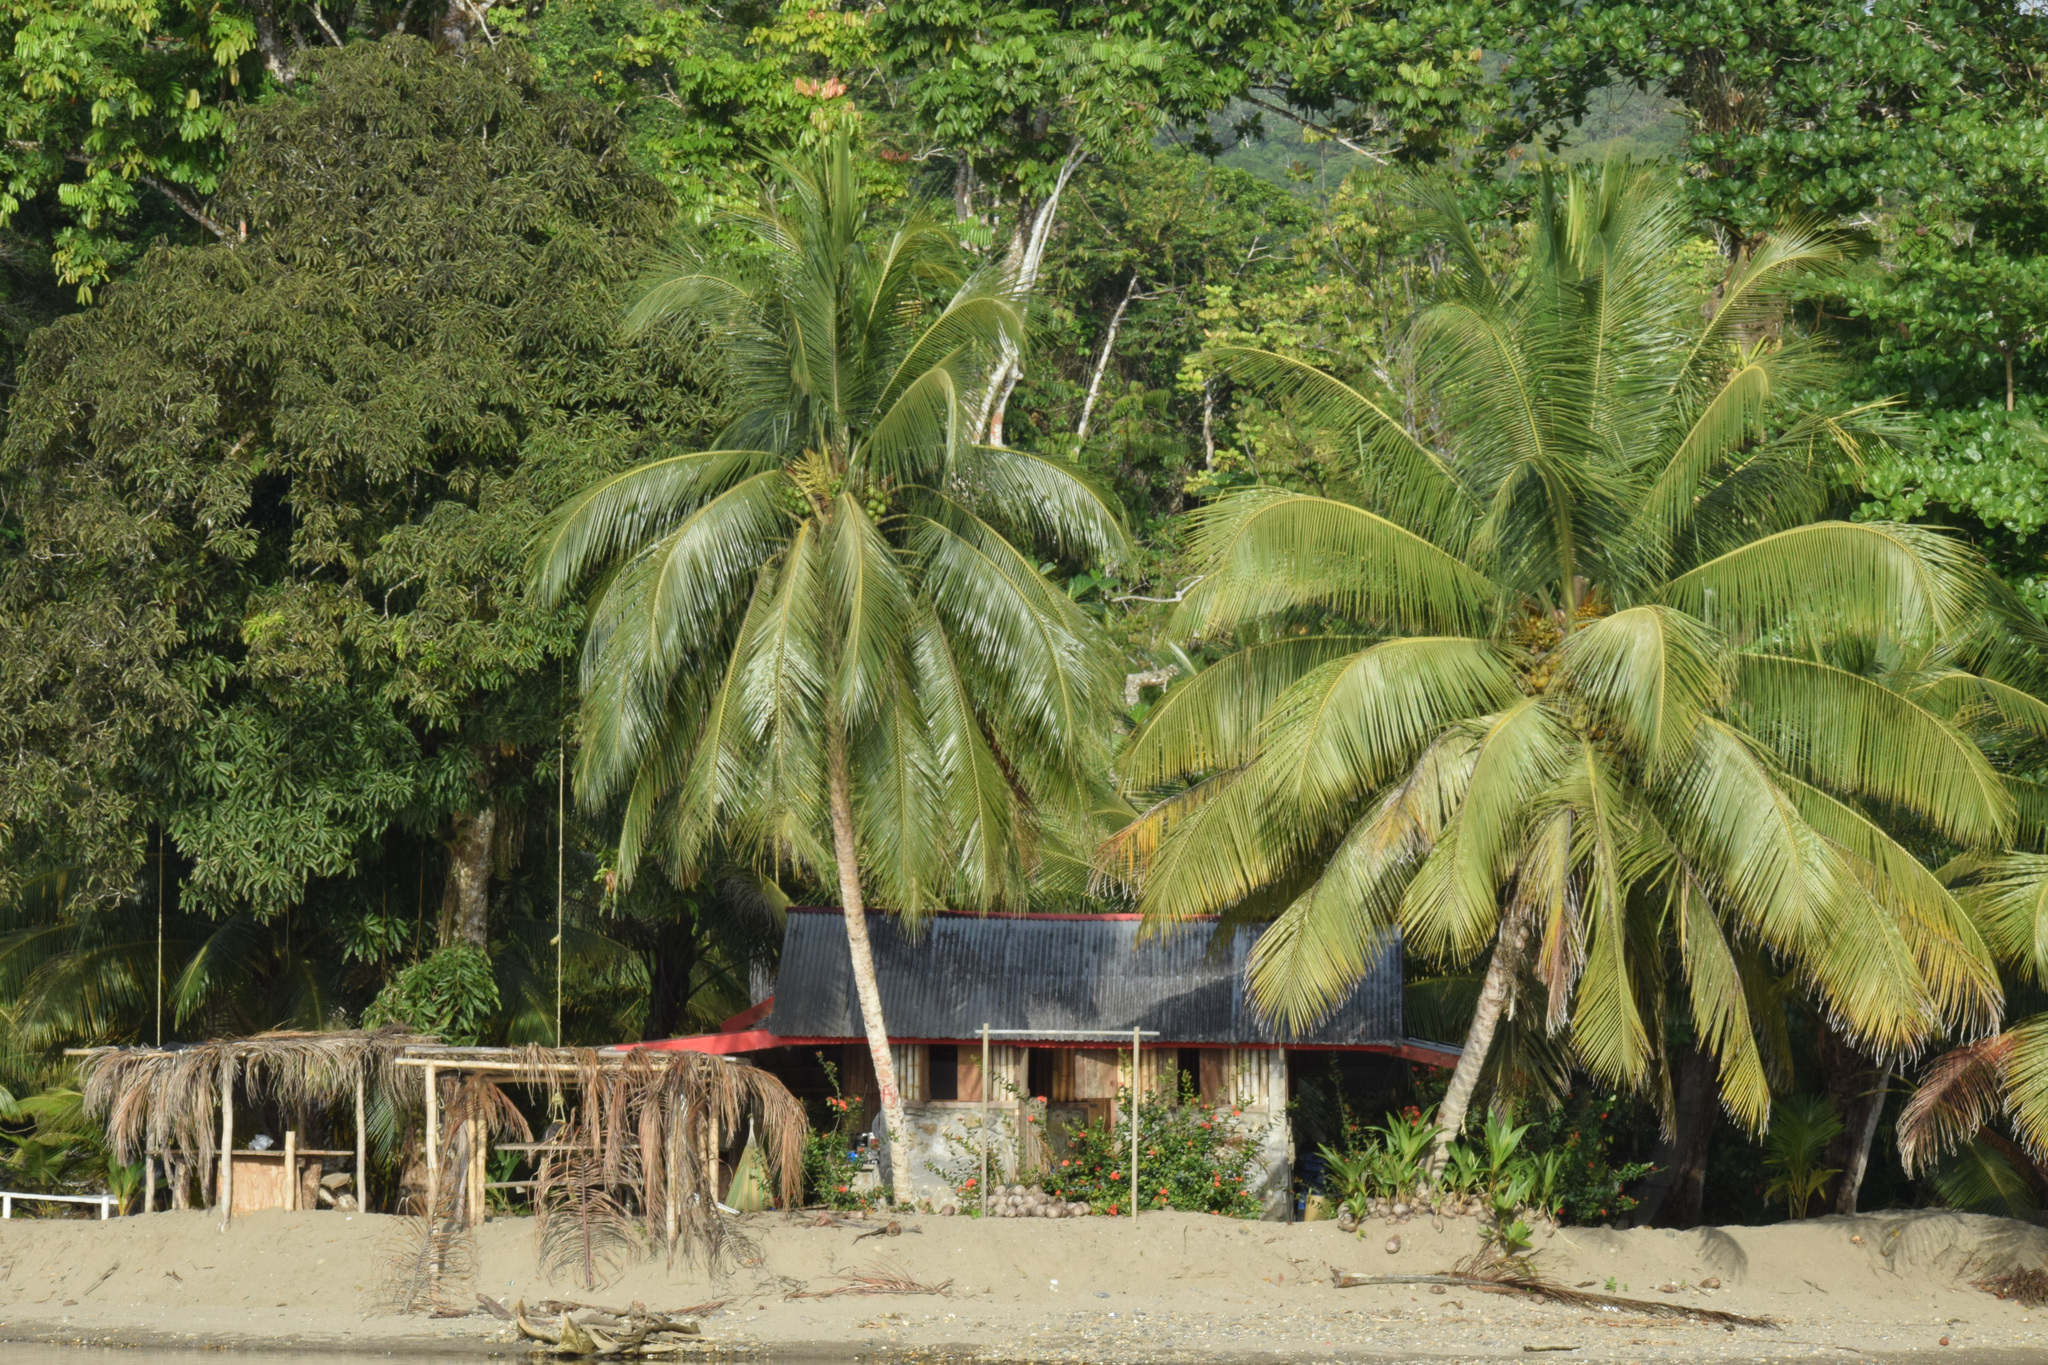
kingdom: Plantae
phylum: Tracheophyta
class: Liliopsida
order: Arecales
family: Arecaceae
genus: Cocos
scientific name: Cocos nucifera
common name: Coconut palm
